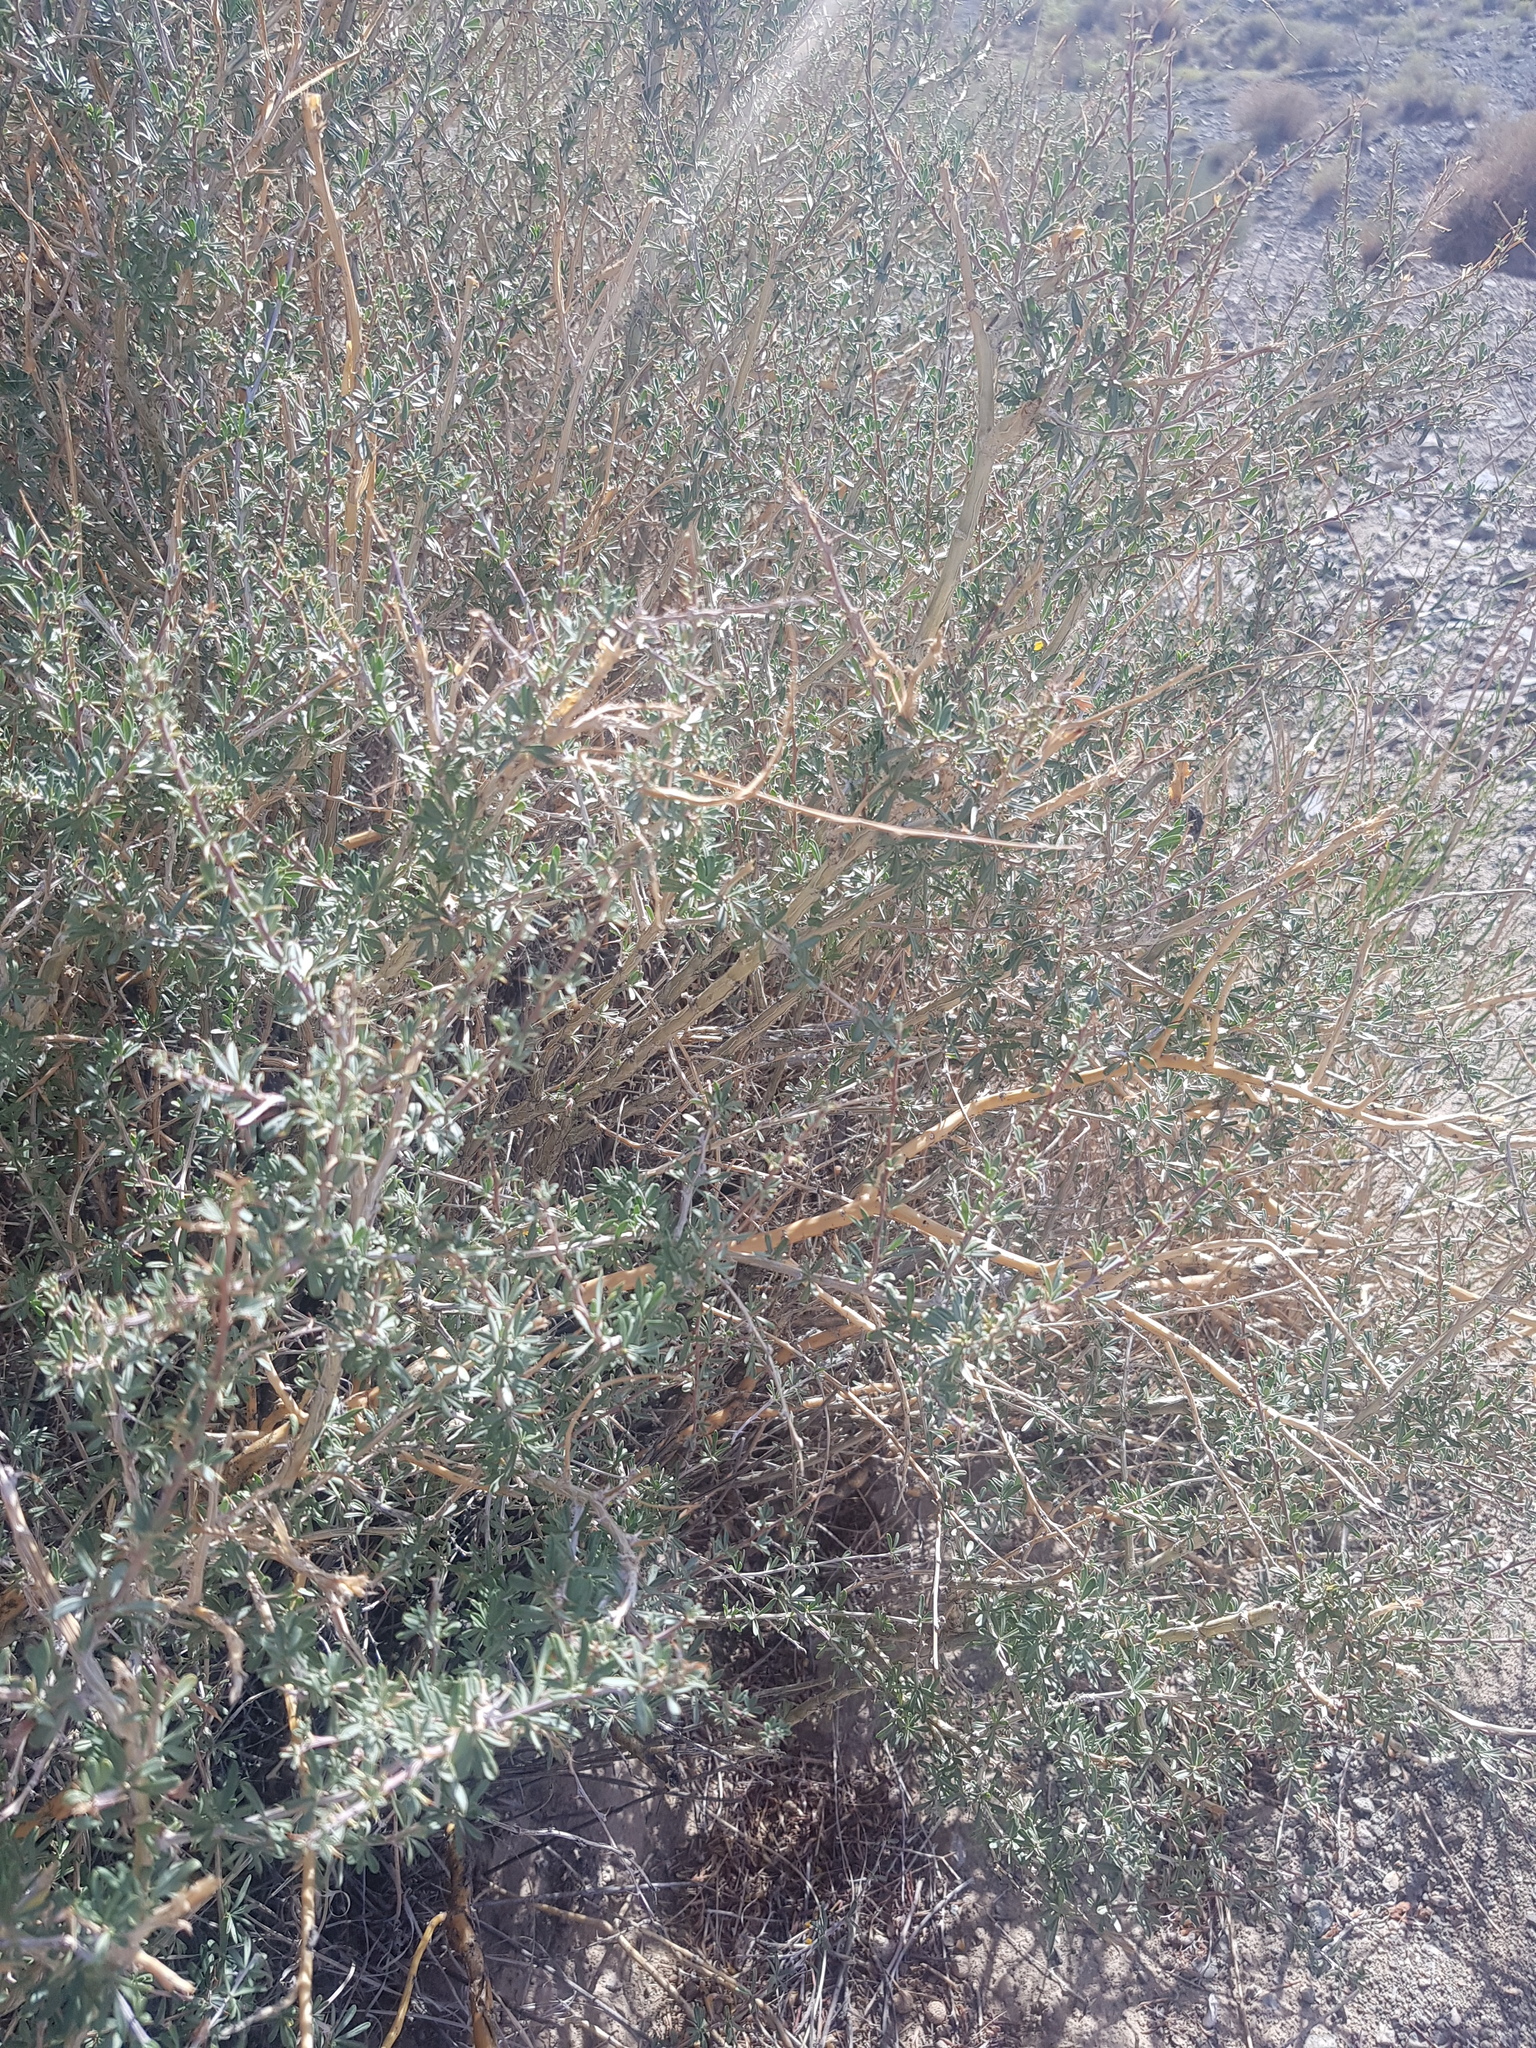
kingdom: Plantae
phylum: Tracheophyta
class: Magnoliopsida
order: Fabales
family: Fabaceae
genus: Caragana
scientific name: Caragana leucophloea
